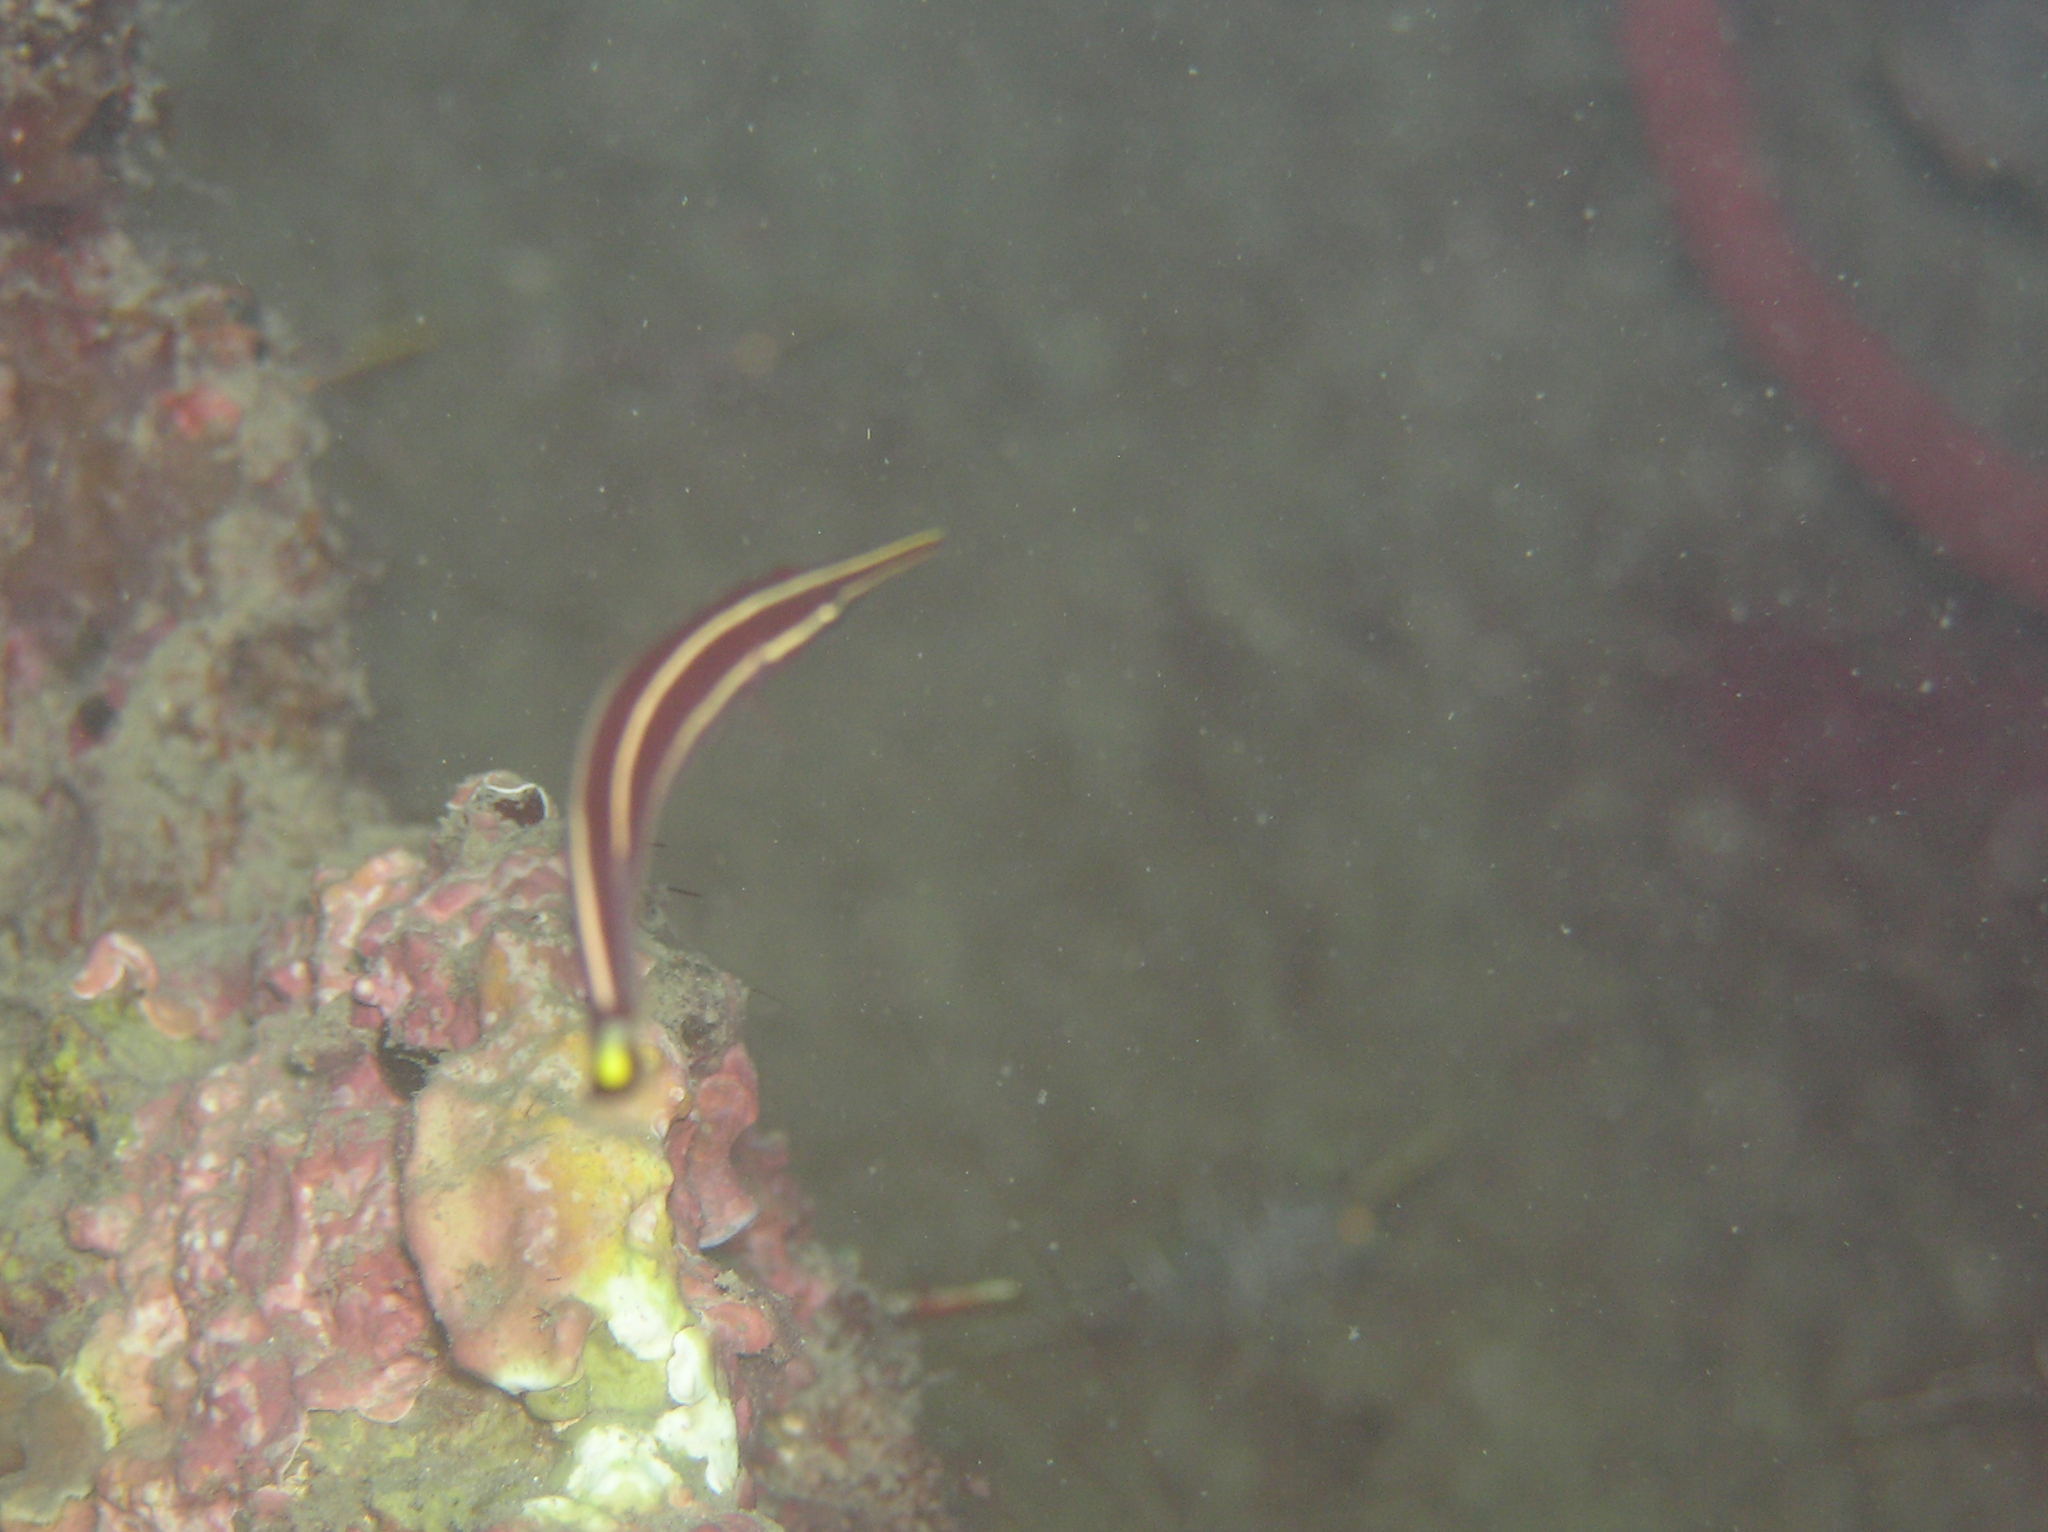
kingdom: Animalia
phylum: Chordata
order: Gobiesociformes
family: Gobiesocidae
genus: Diademichthys
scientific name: Diademichthys lineatus
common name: Urchin clingfish
